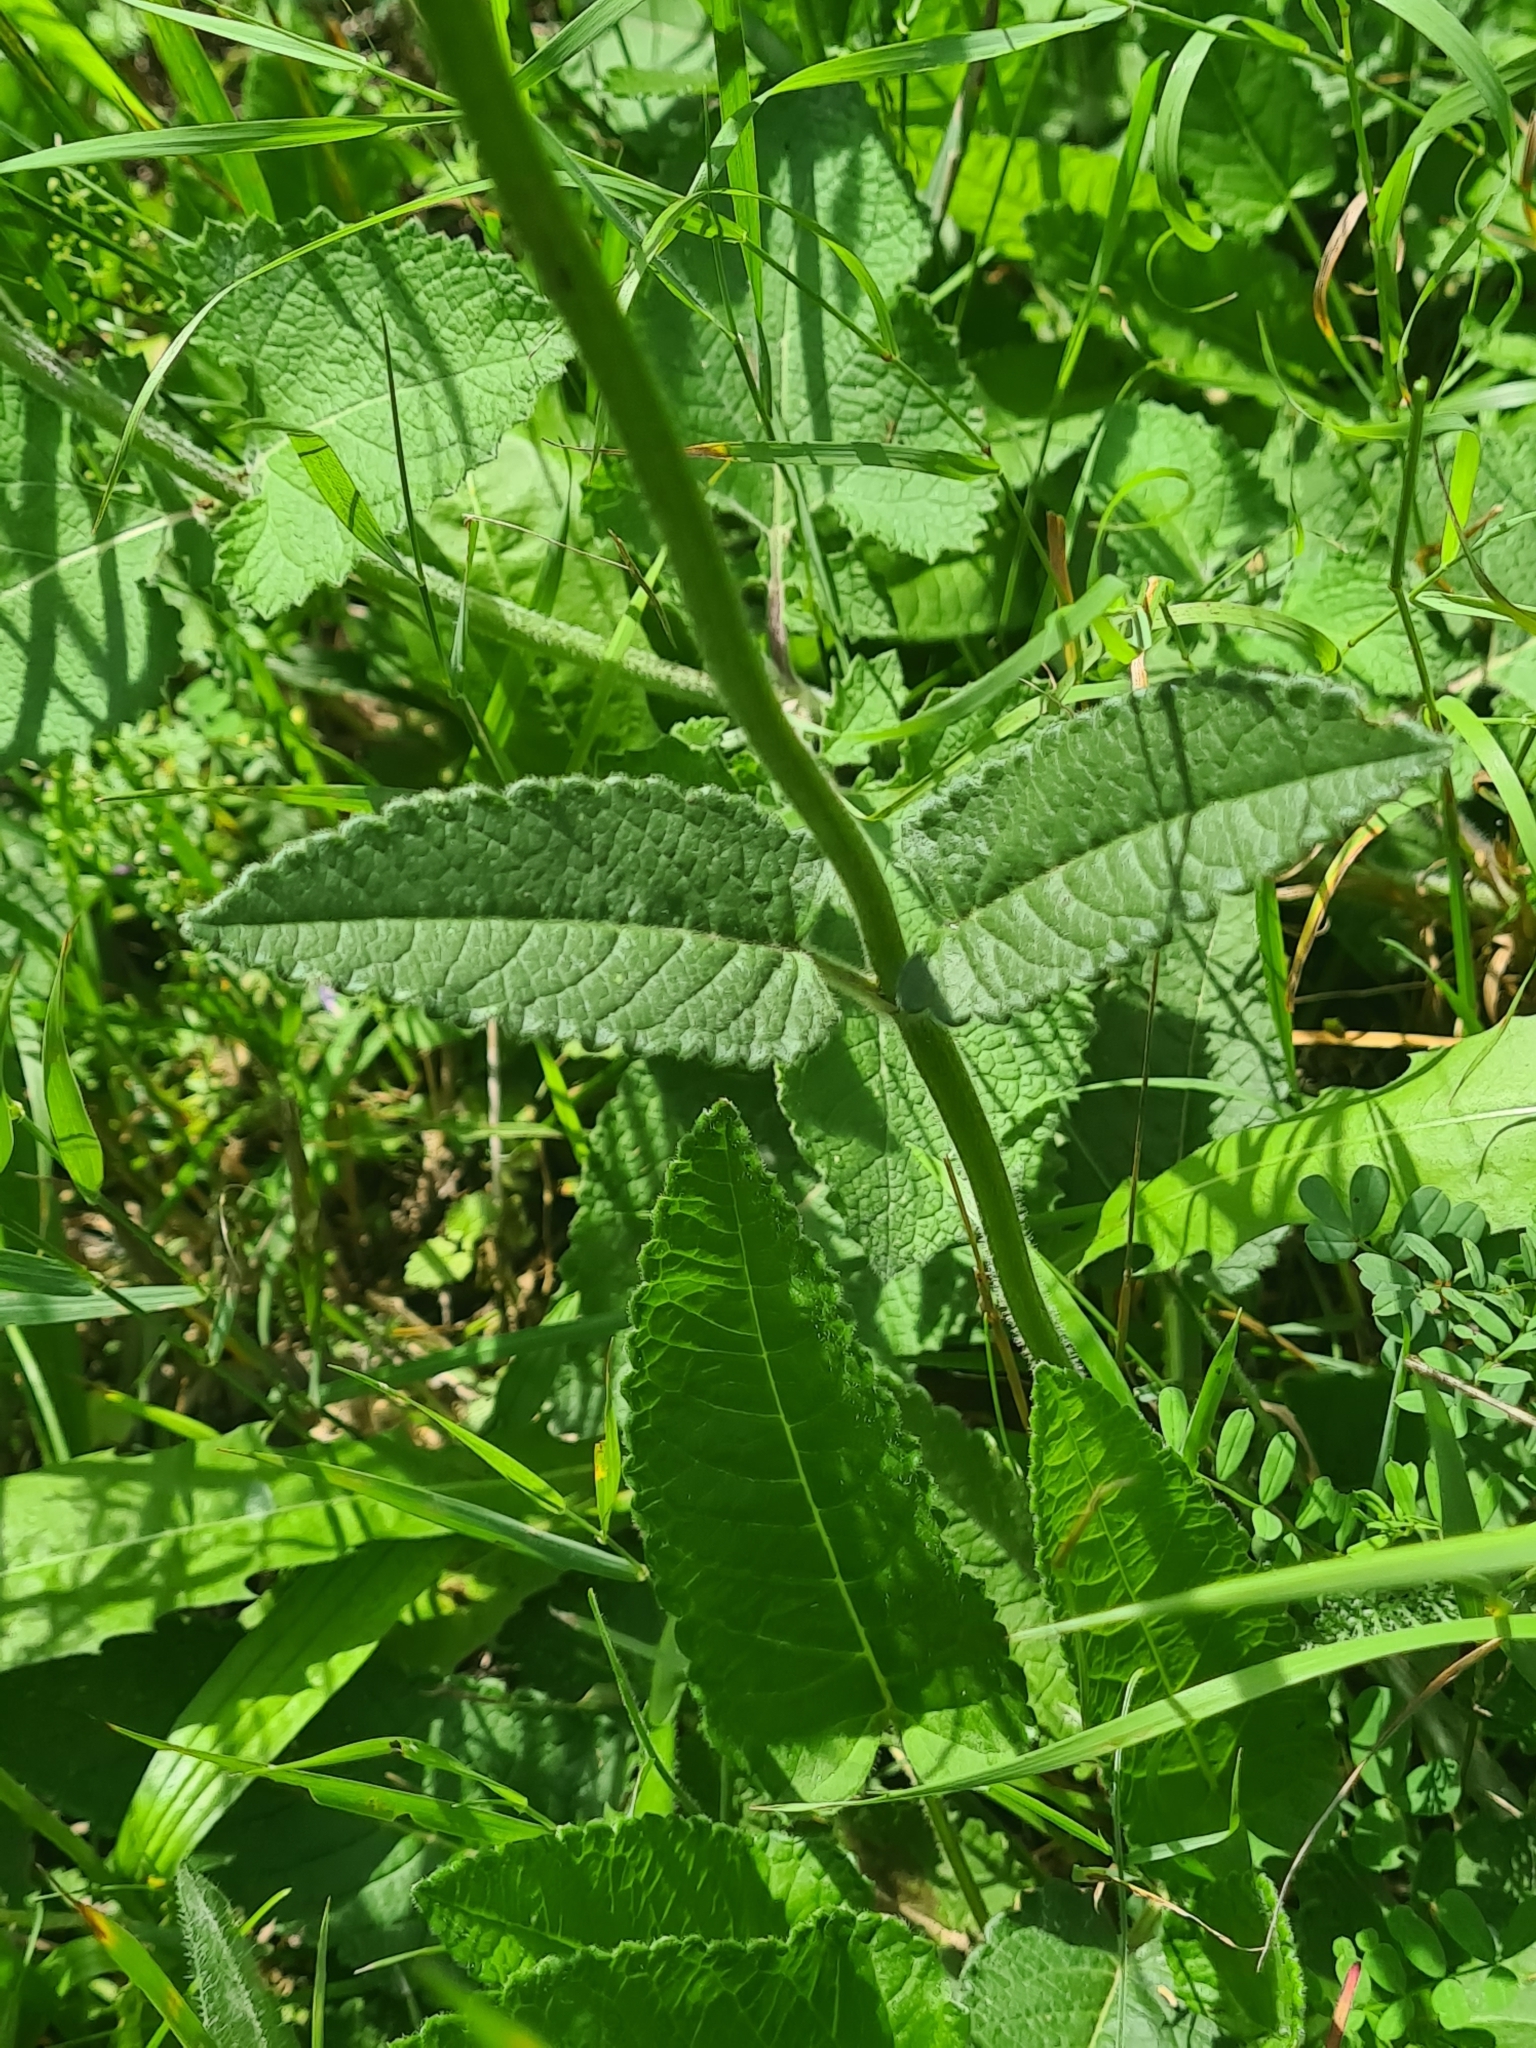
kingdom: Plantae
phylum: Tracheophyta
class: Magnoliopsida
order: Lamiales
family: Lamiaceae
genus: Betonica
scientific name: Betonica officinalis
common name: Bishop's-wort
